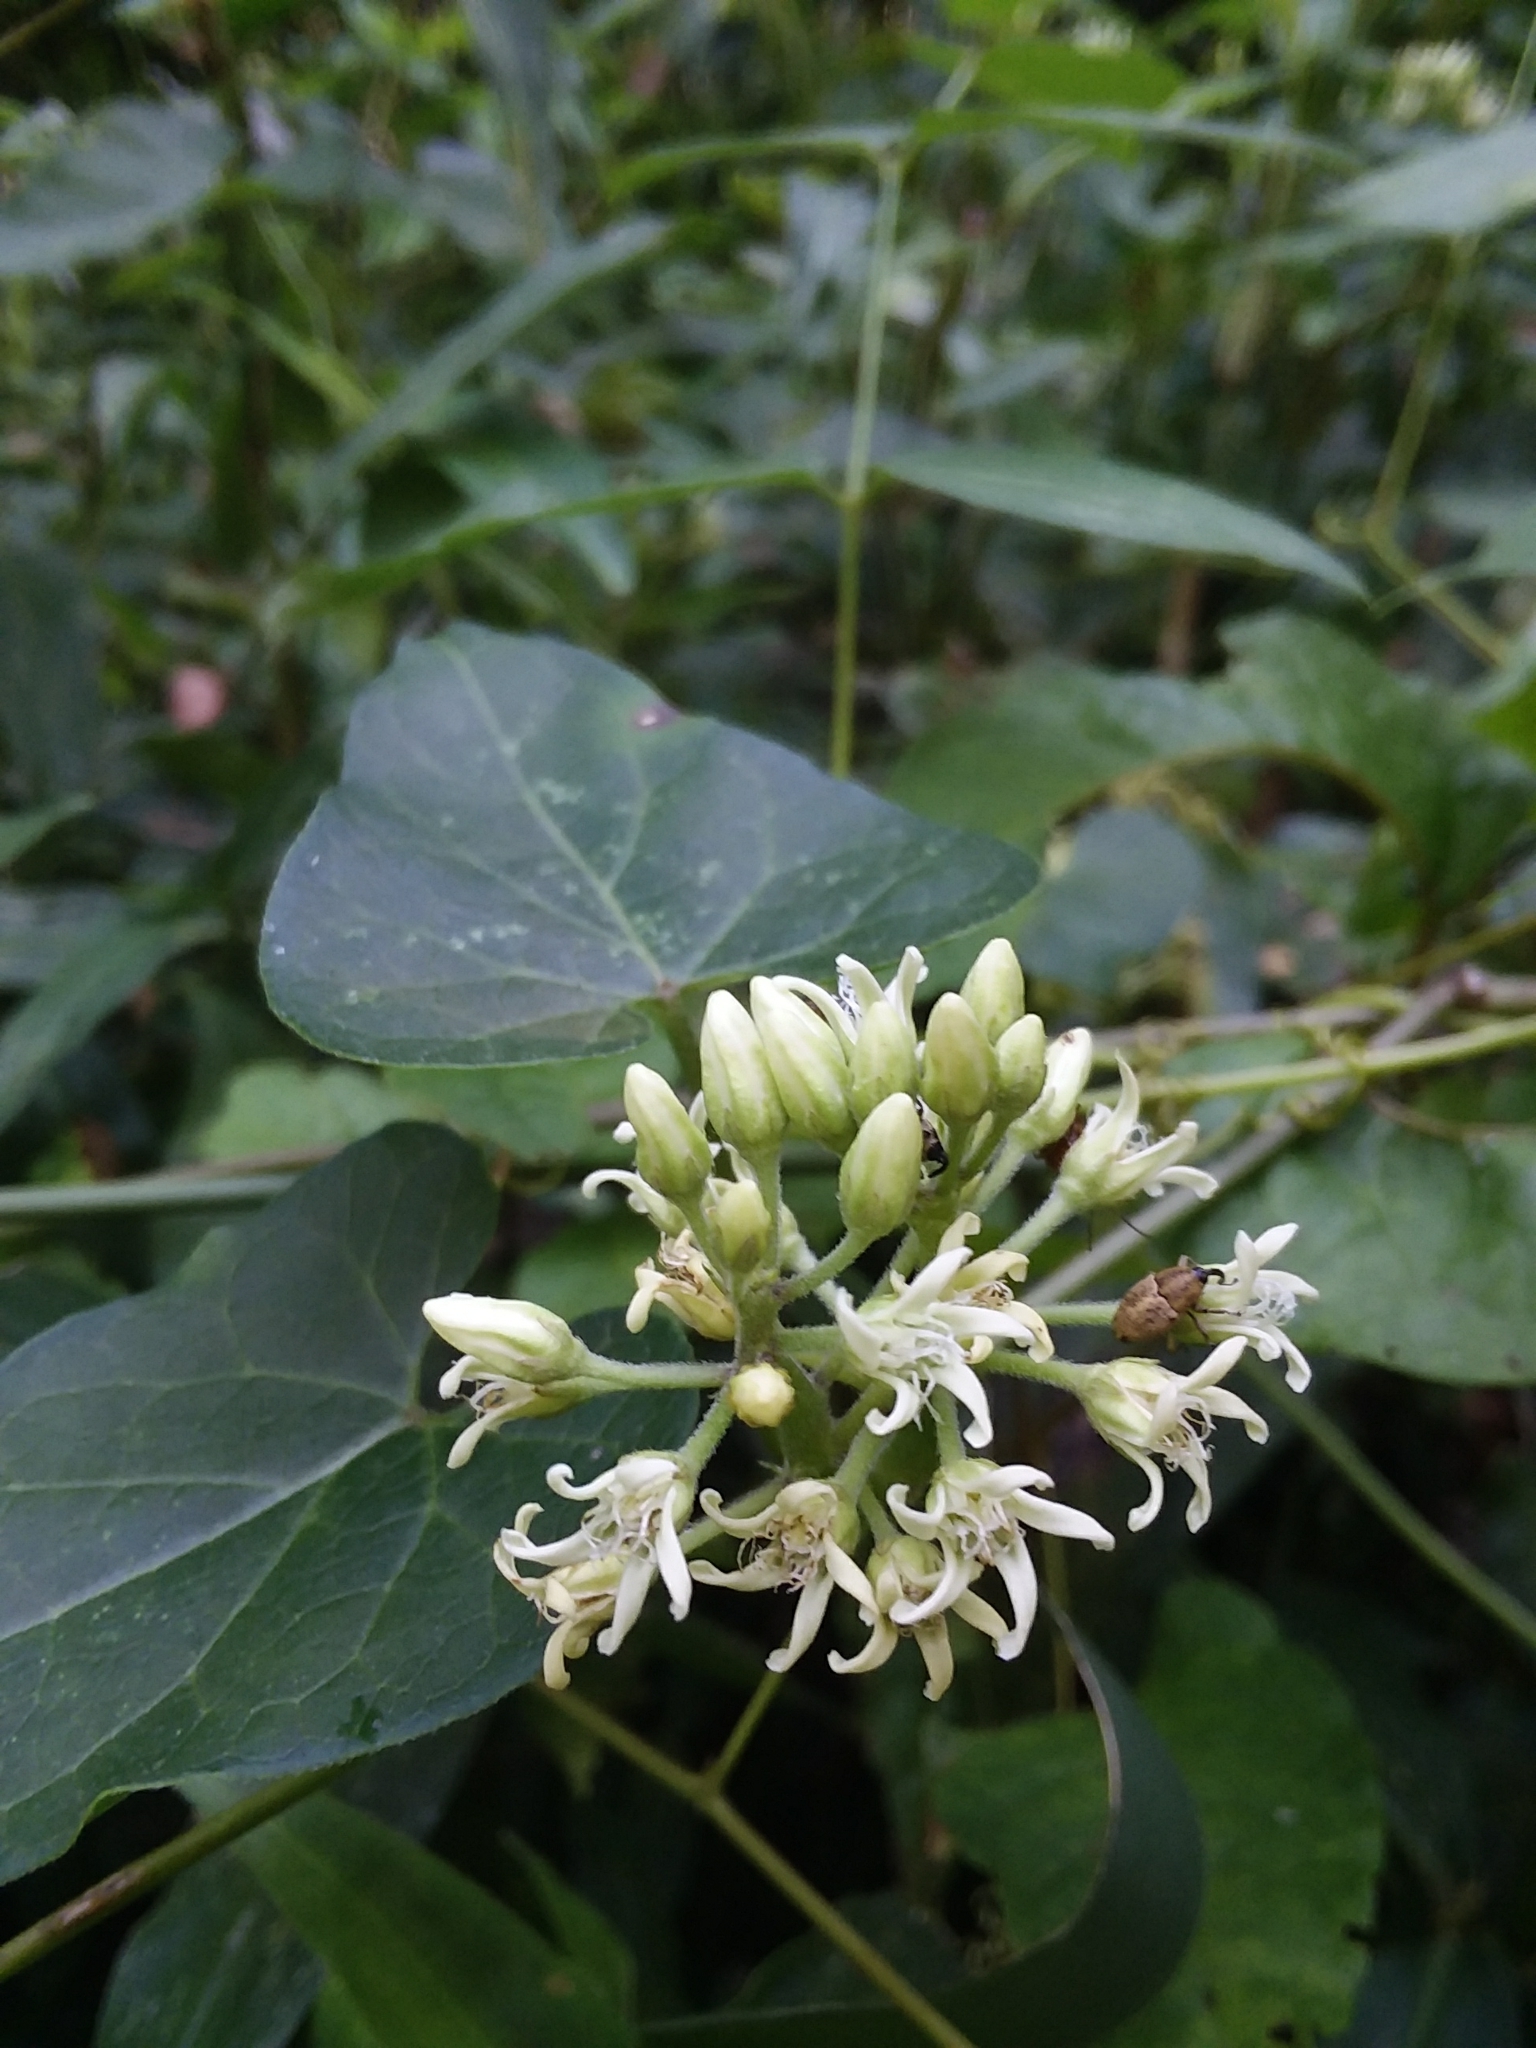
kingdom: Plantae
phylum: Tracheophyta
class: Magnoliopsida
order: Gentianales
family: Apocynaceae
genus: Cynanchum
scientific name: Cynanchum laeve
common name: Sandvine
